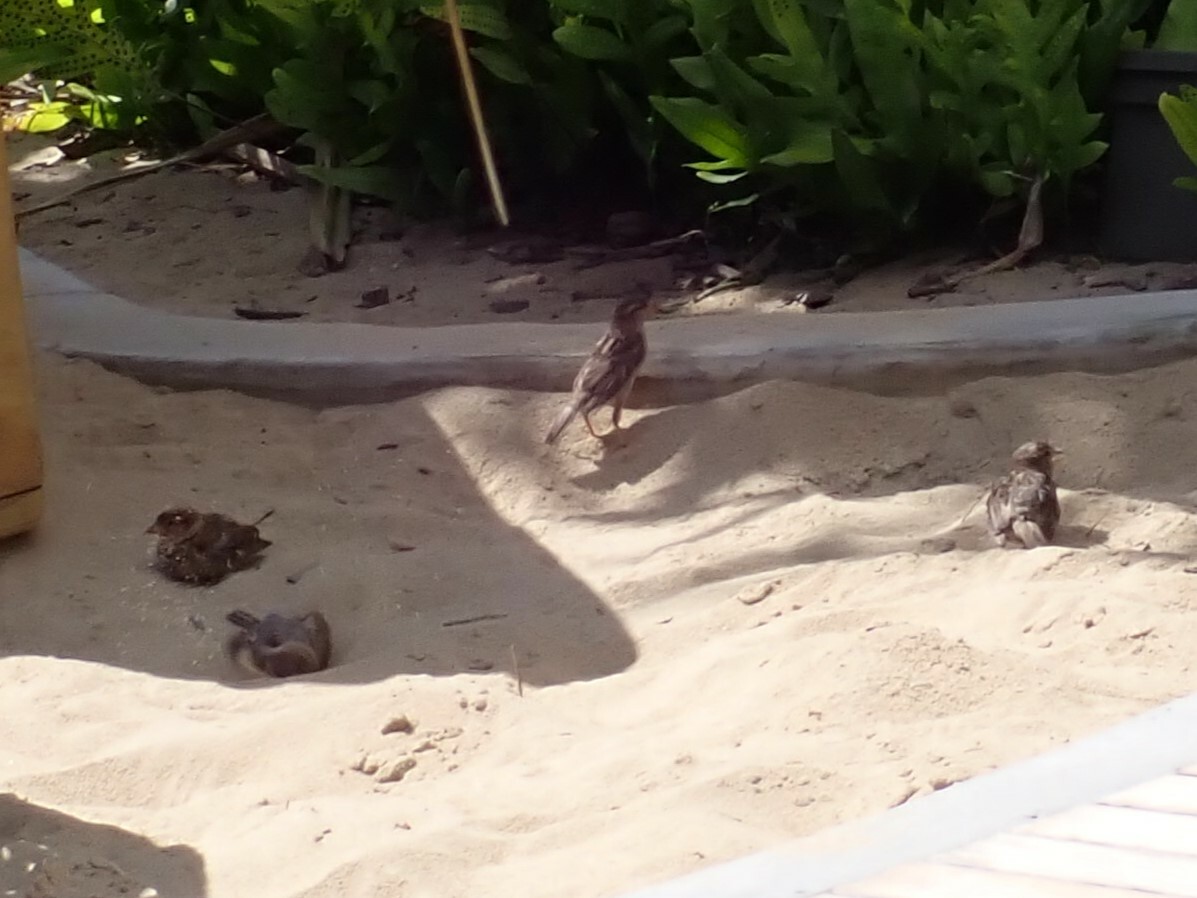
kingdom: Animalia
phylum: Chordata
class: Aves
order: Passeriformes
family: Passeridae
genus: Passer
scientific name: Passer domesticus
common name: House sparrow
